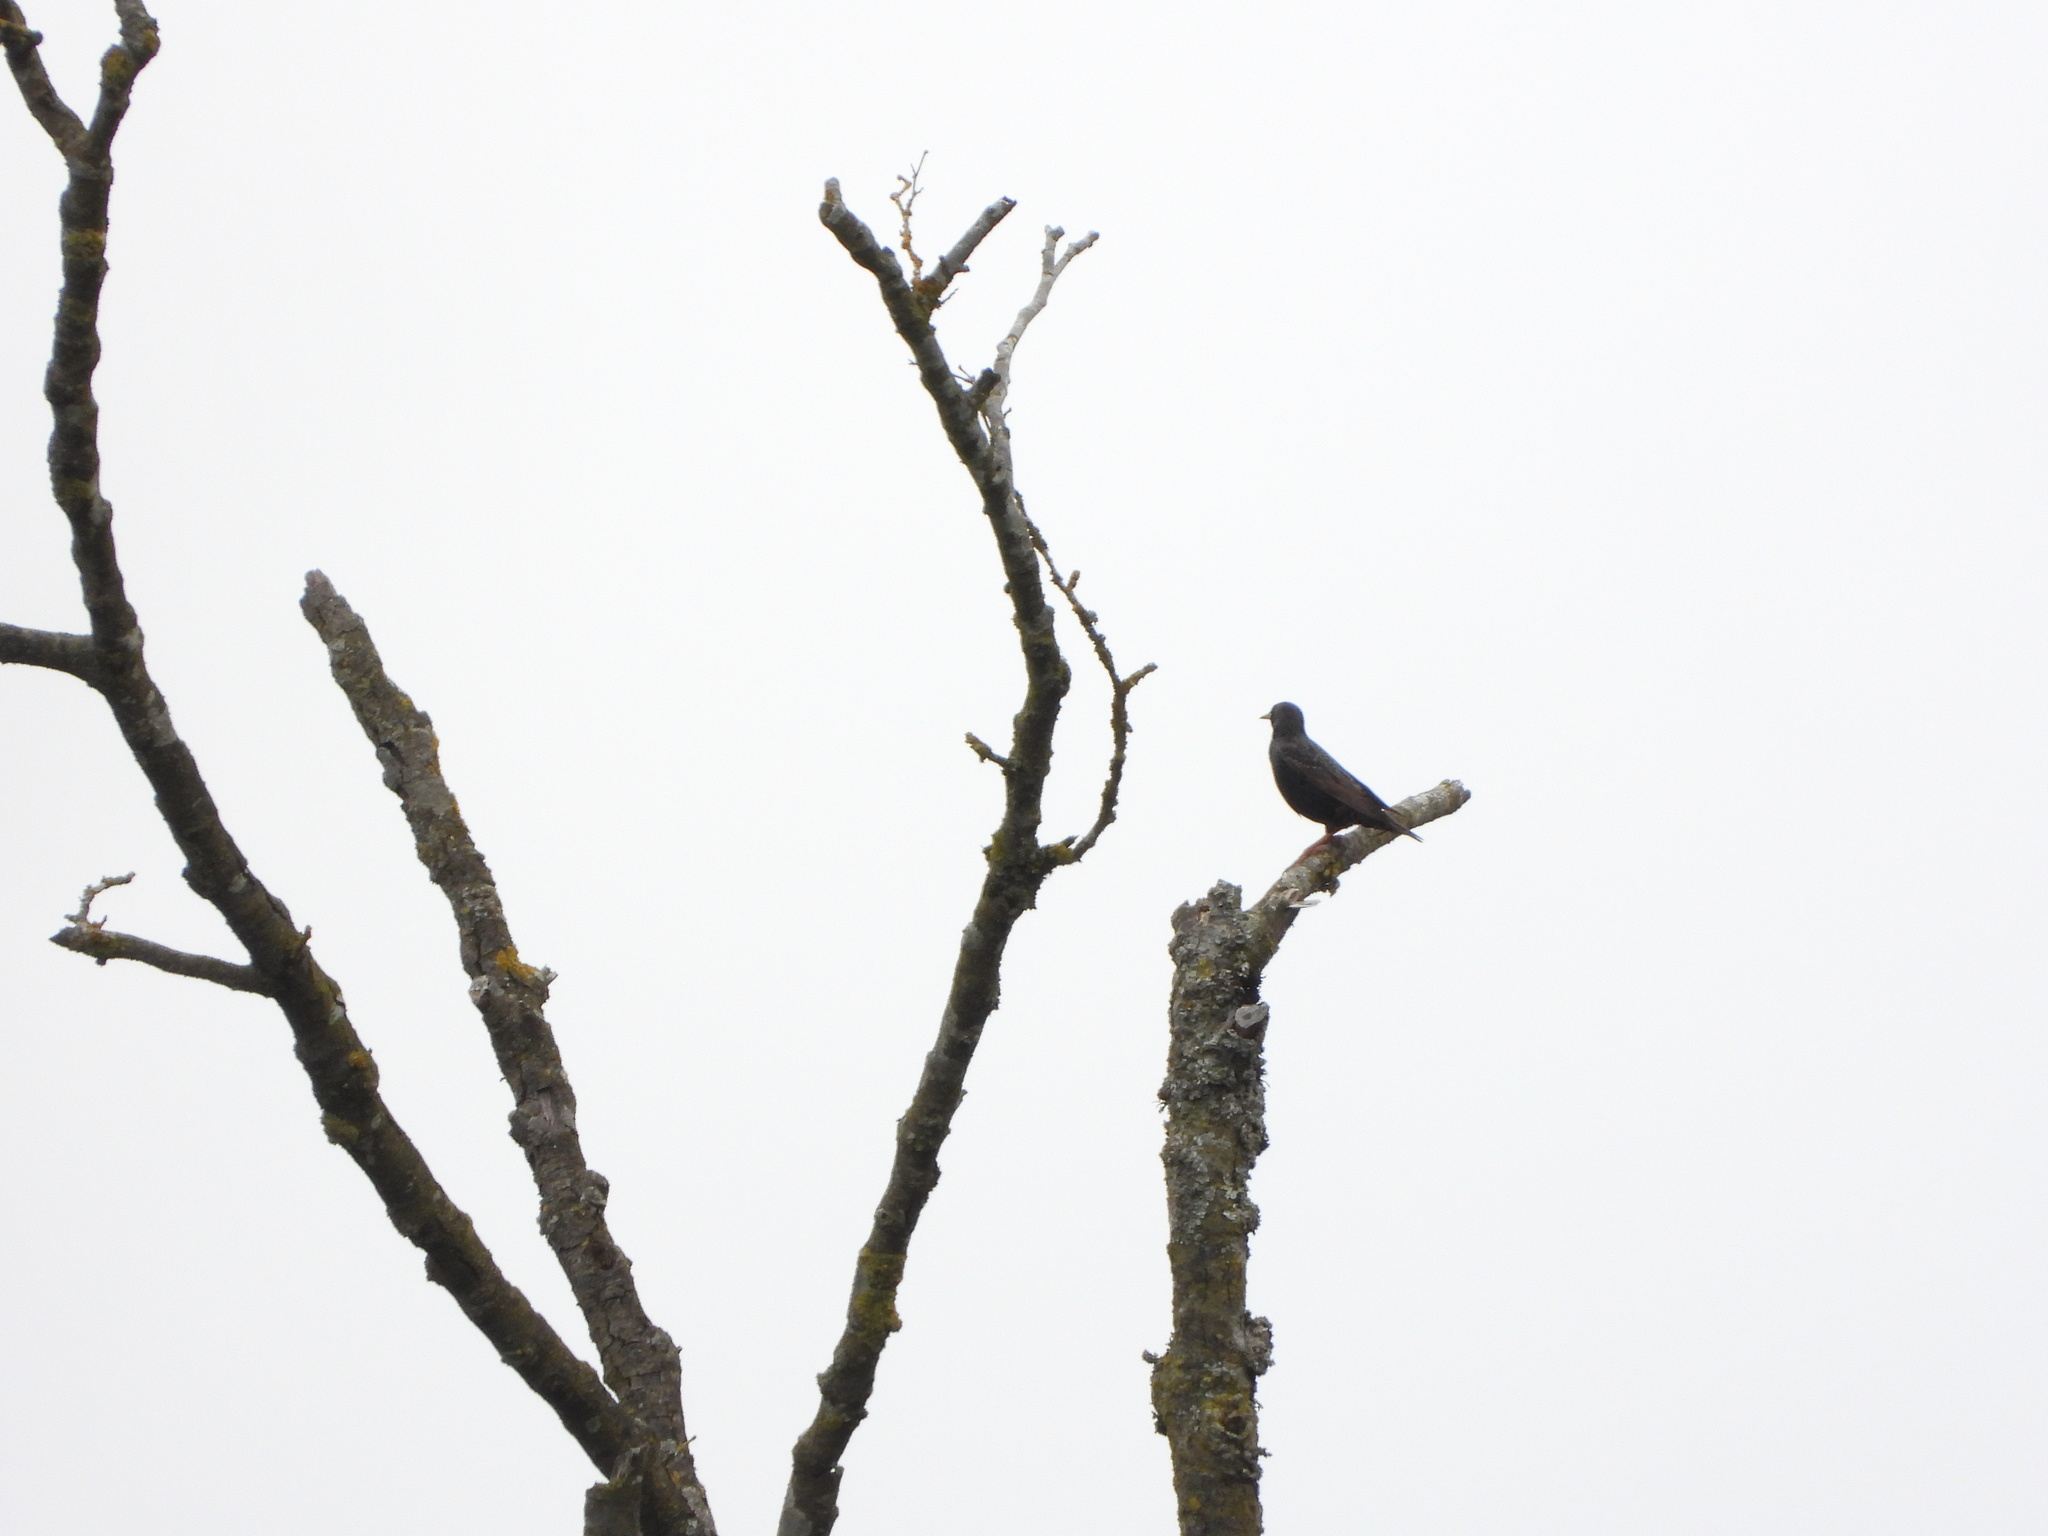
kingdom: Animalia
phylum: Chordata
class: Aves
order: Passeriformes
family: Sturnidae
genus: Sturnus
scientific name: Sturnus vulgaris
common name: Common starling
